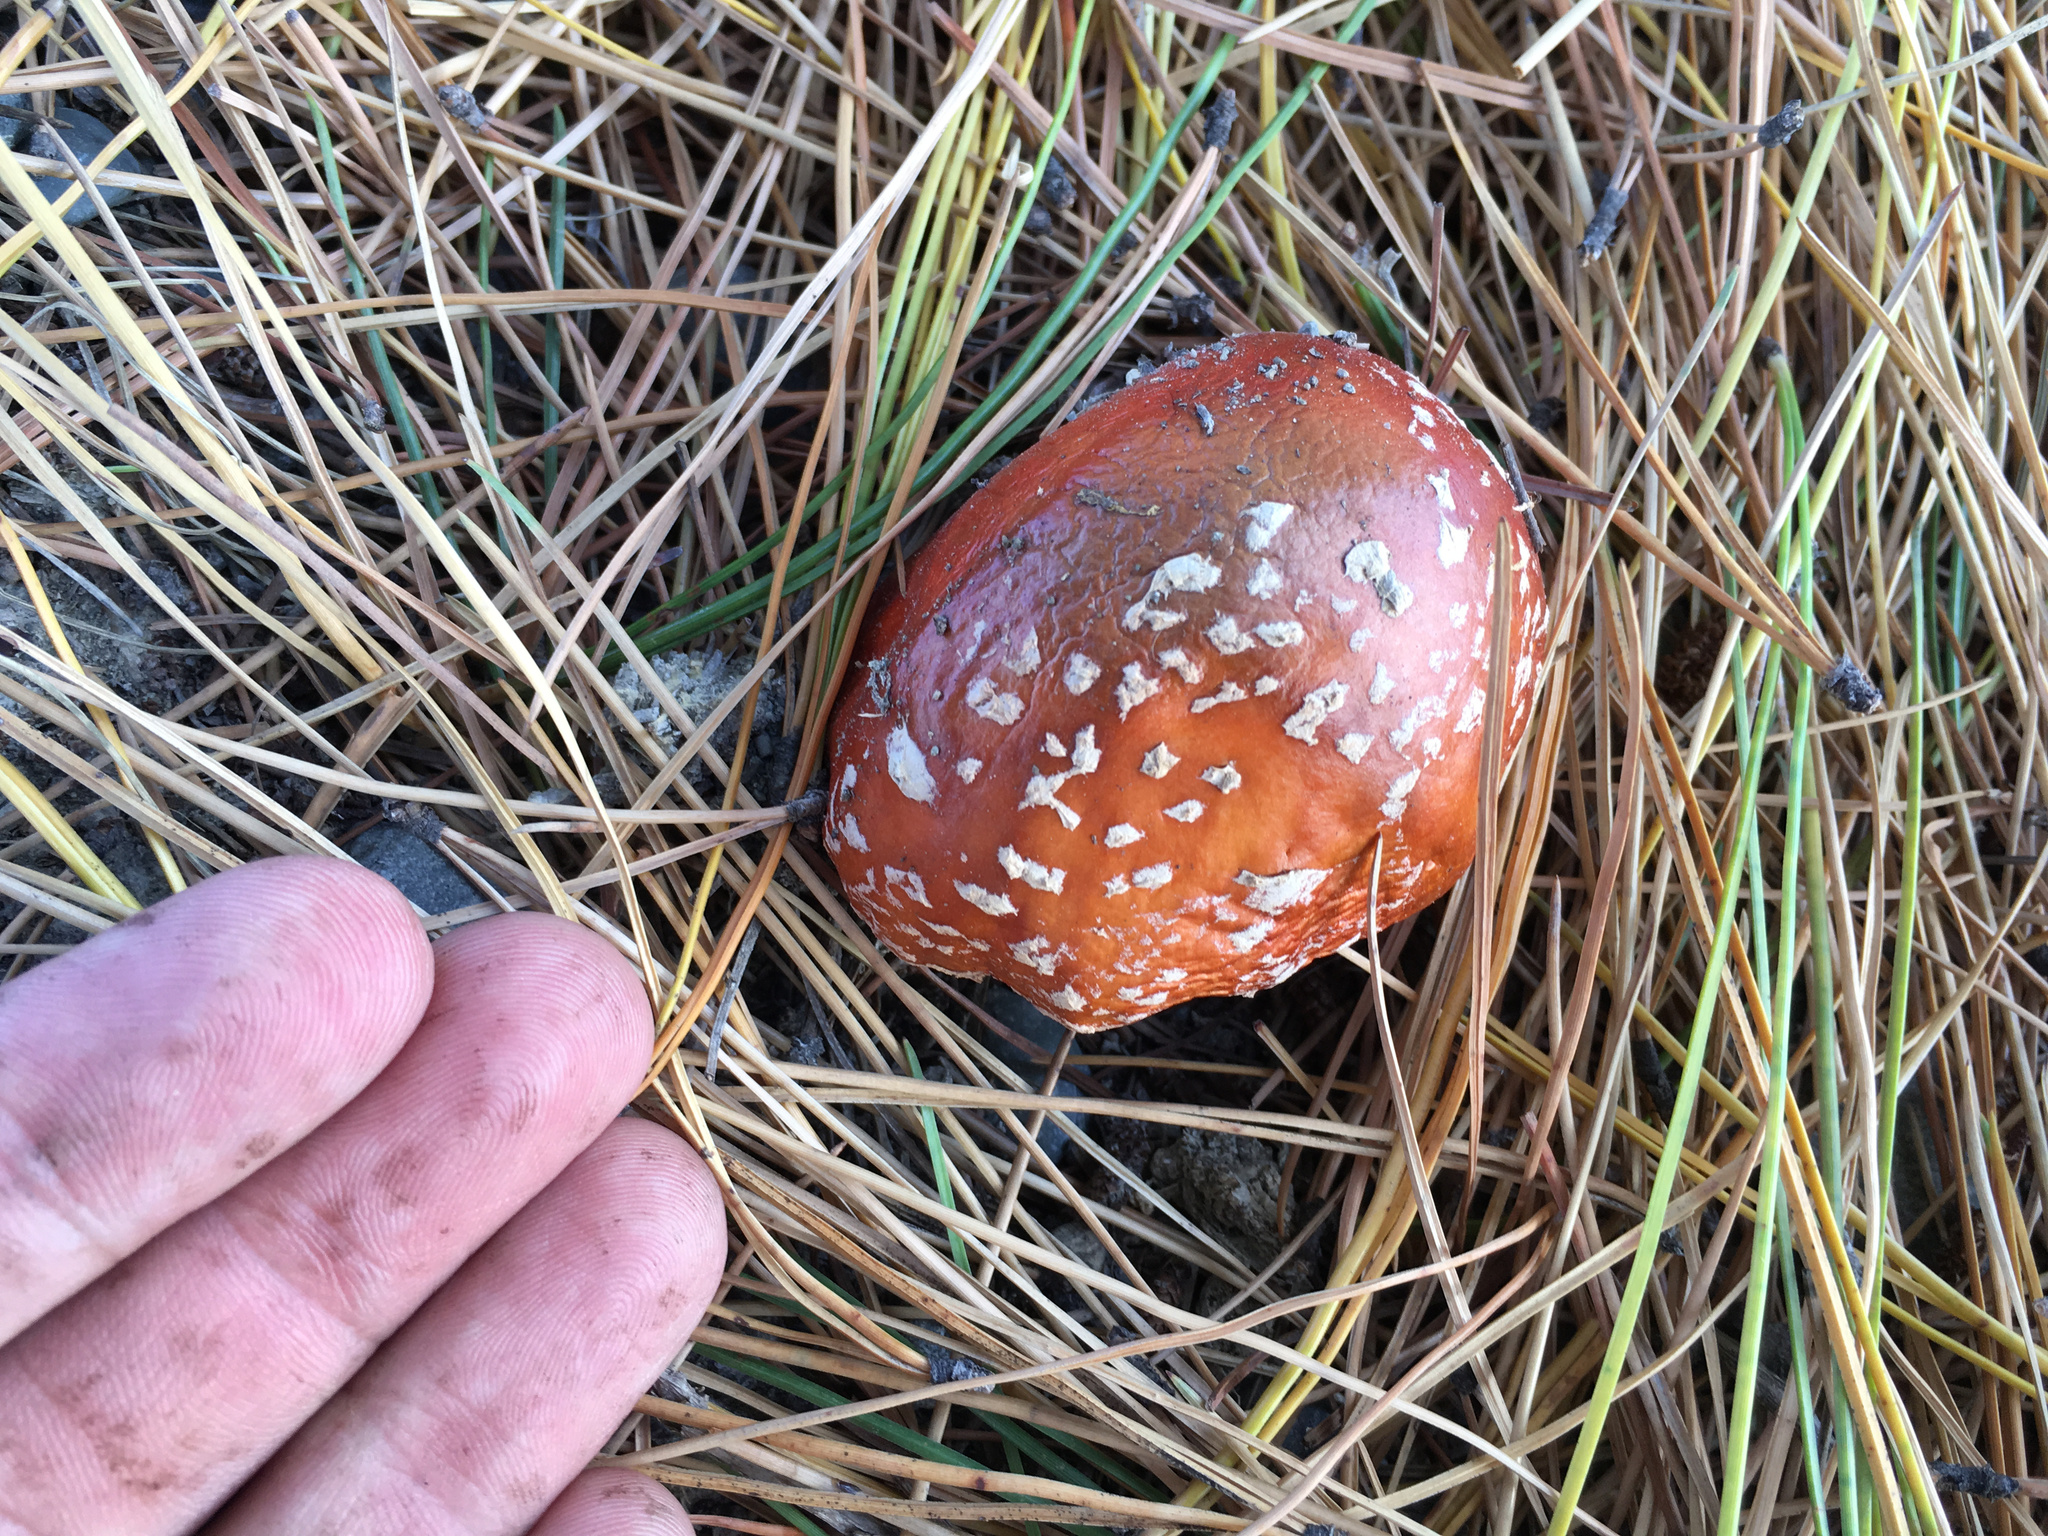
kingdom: Fungi
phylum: Basidiomycota
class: Agaricomycetes
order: Agaricales
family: Amanitaceae
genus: Amanita
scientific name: Amanita muscaria
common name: Fly agaric
